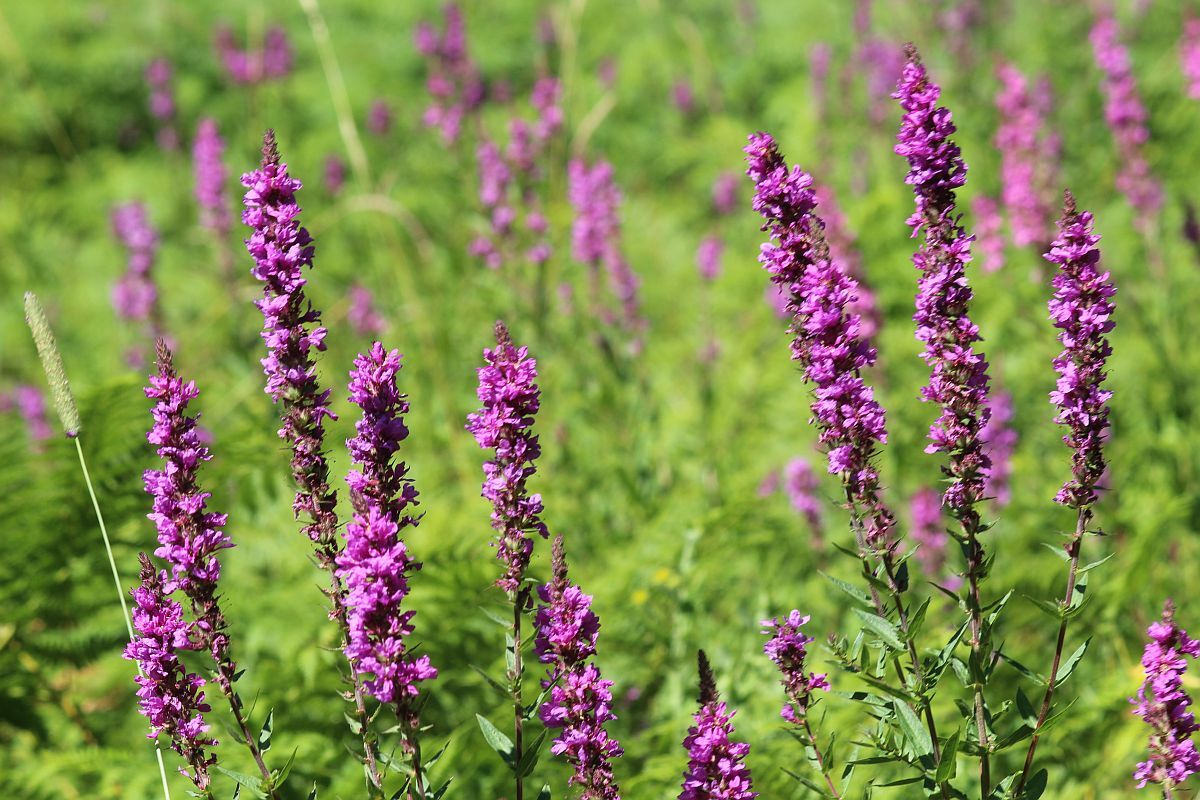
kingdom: Plantae
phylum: Tracheophyta
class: Magnoliopsida
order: Myrtales
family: Lythraceae
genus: Lythrum
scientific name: Lythrum salicaria
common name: Purple loosestrife
